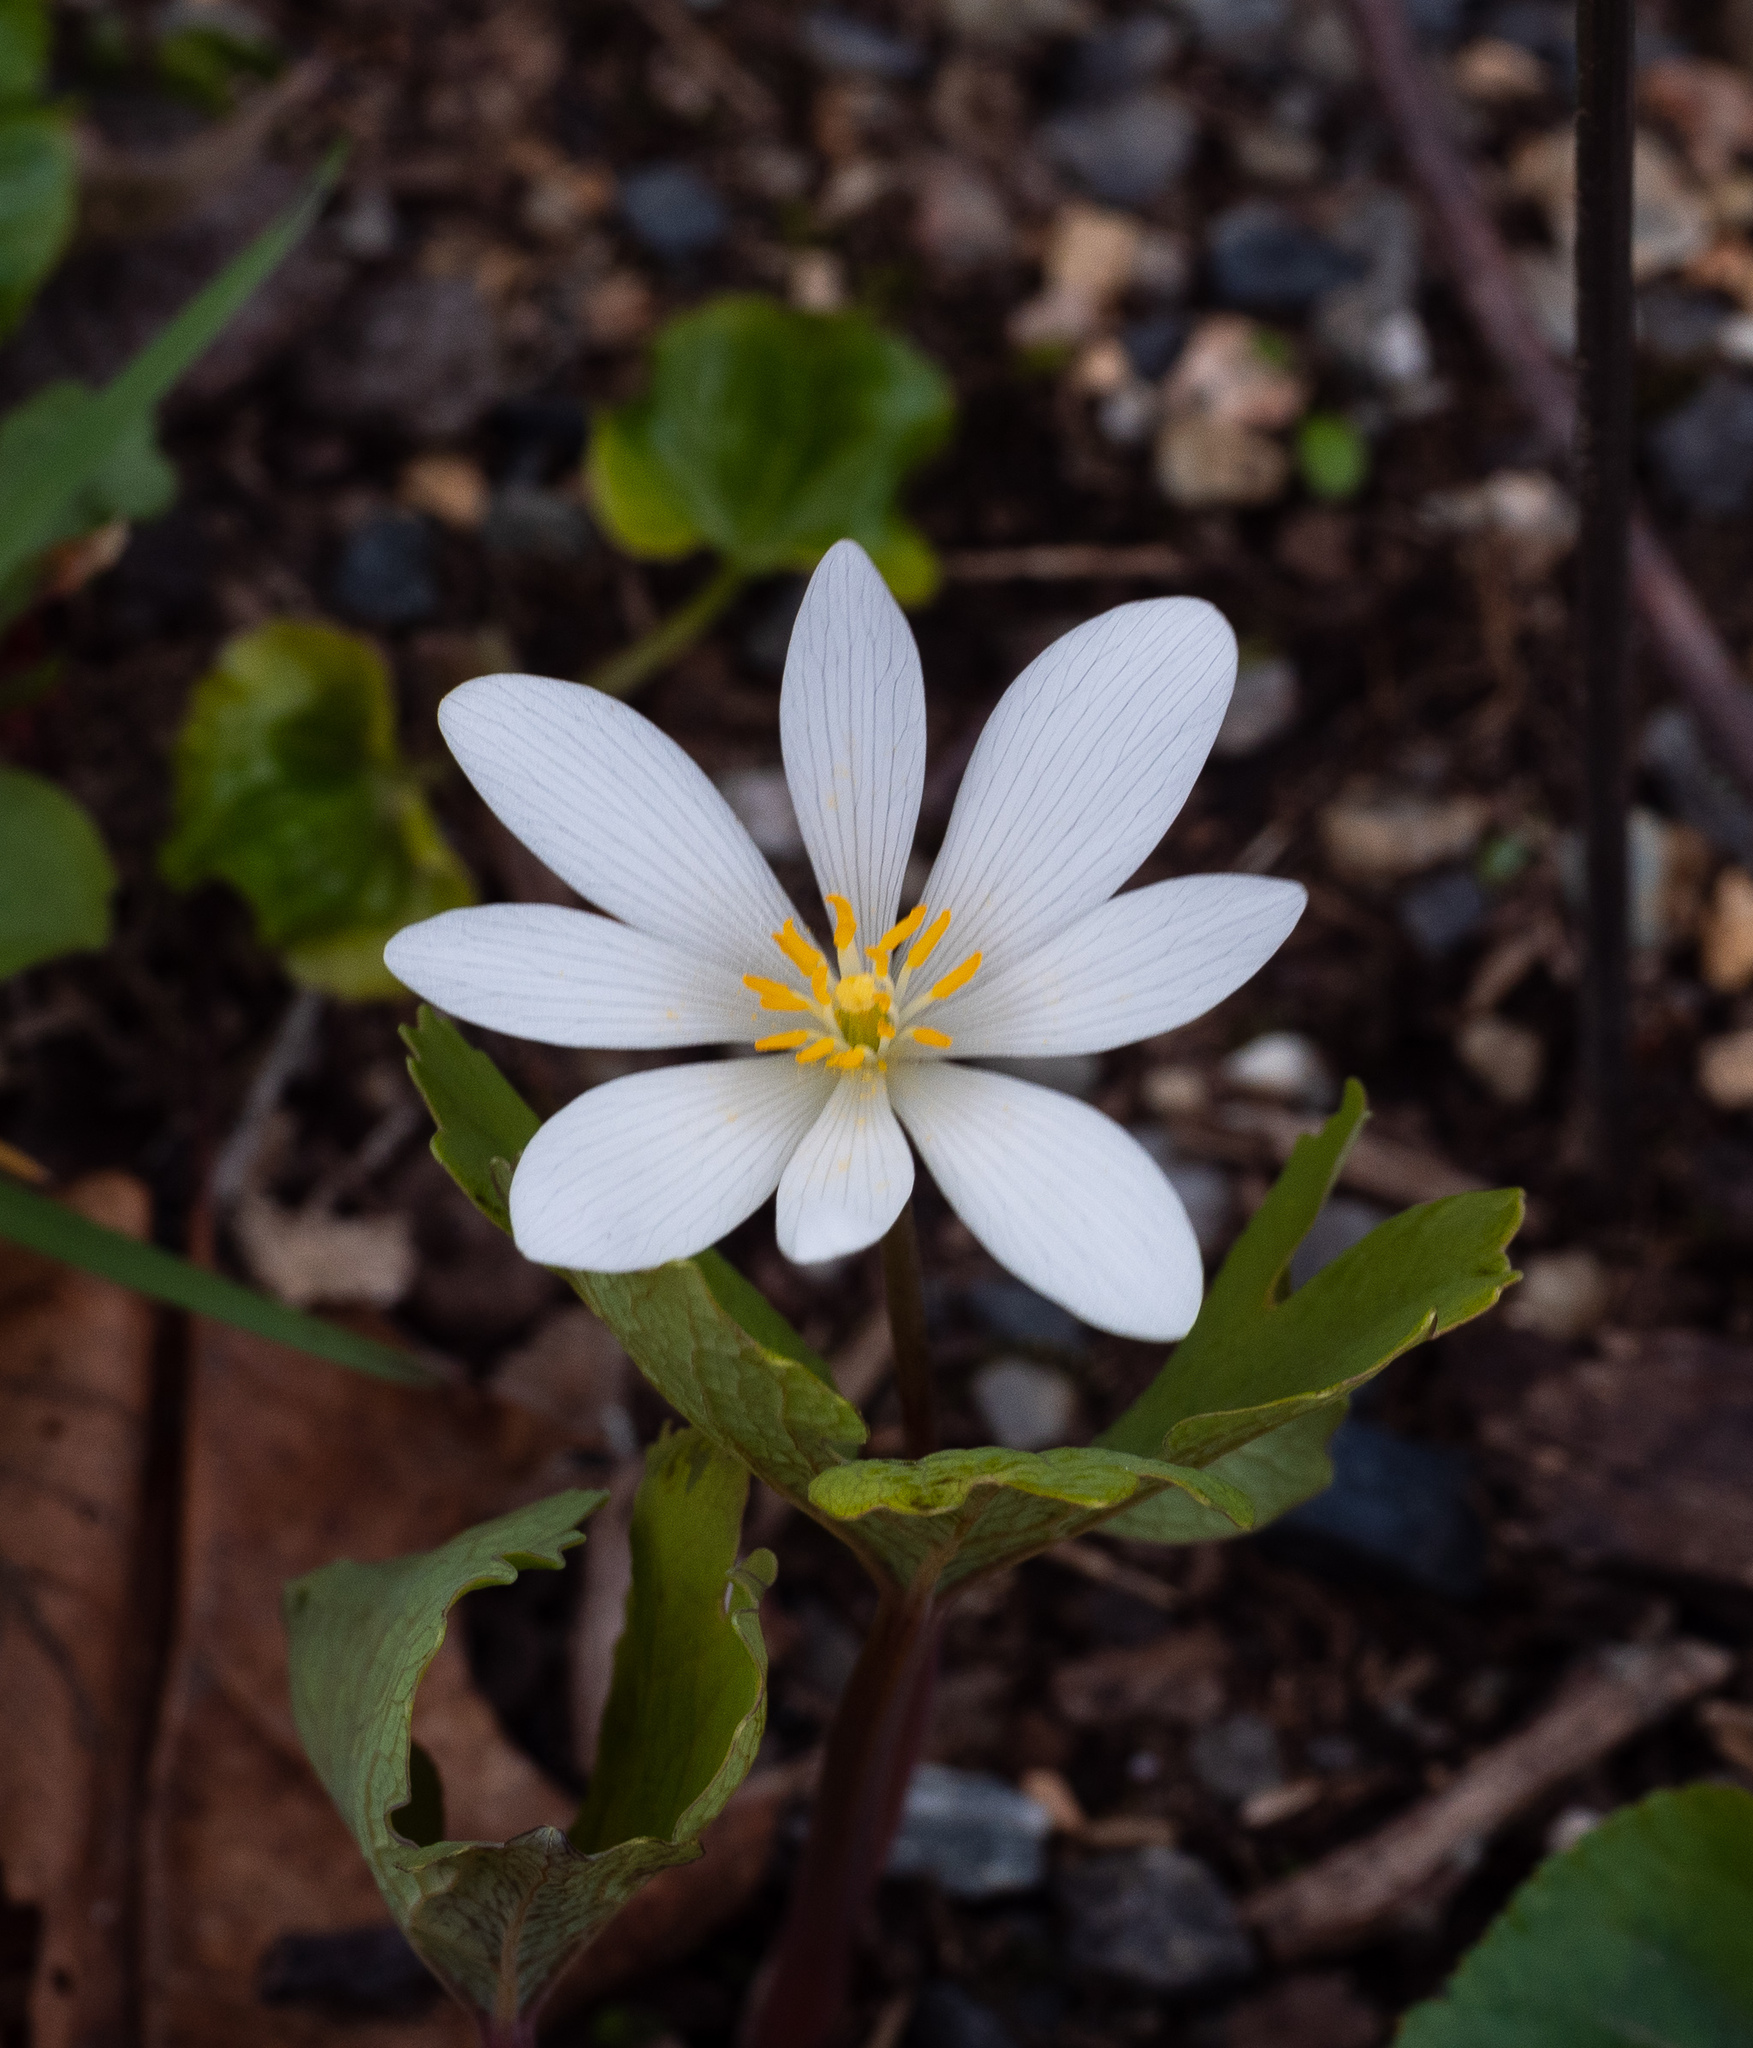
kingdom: Plantae
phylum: Tracheophyta
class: Magnoliopsida
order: Ranunculales
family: Papaveraceae
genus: Sanguinaria
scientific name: Sanguinaria canadensis
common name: Bloodroot
